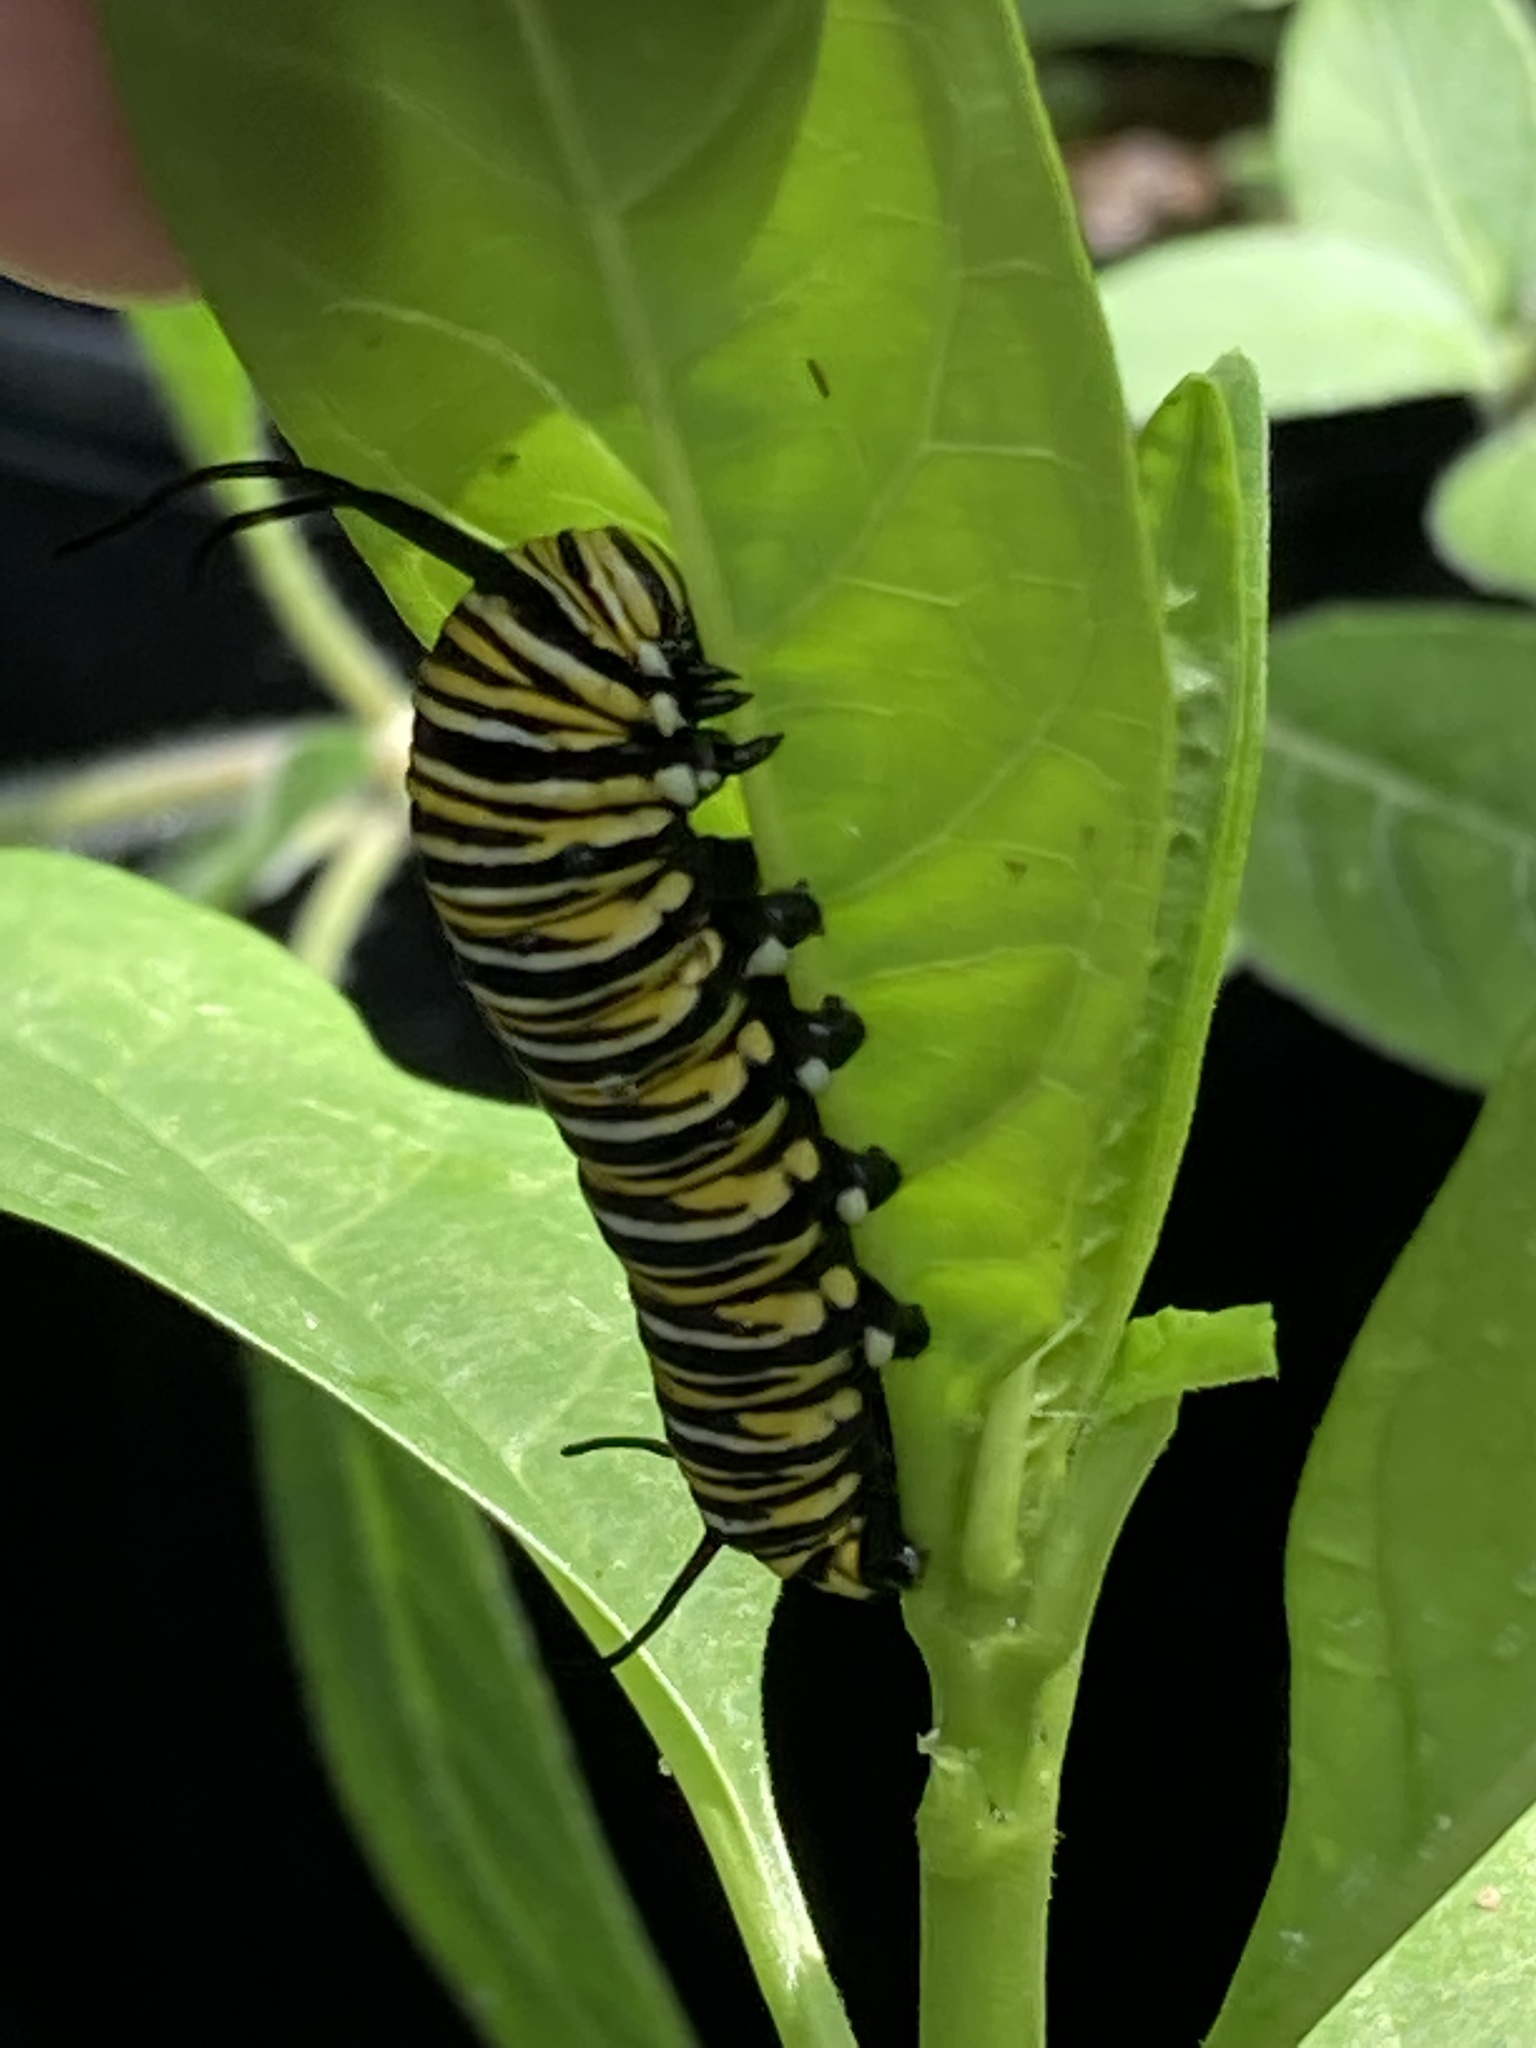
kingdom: Animalia
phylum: Arthropoda
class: Insecta
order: Lepidoptera
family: Nymphalidae
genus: Danaus
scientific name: Danaus plexippus
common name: Monarch
